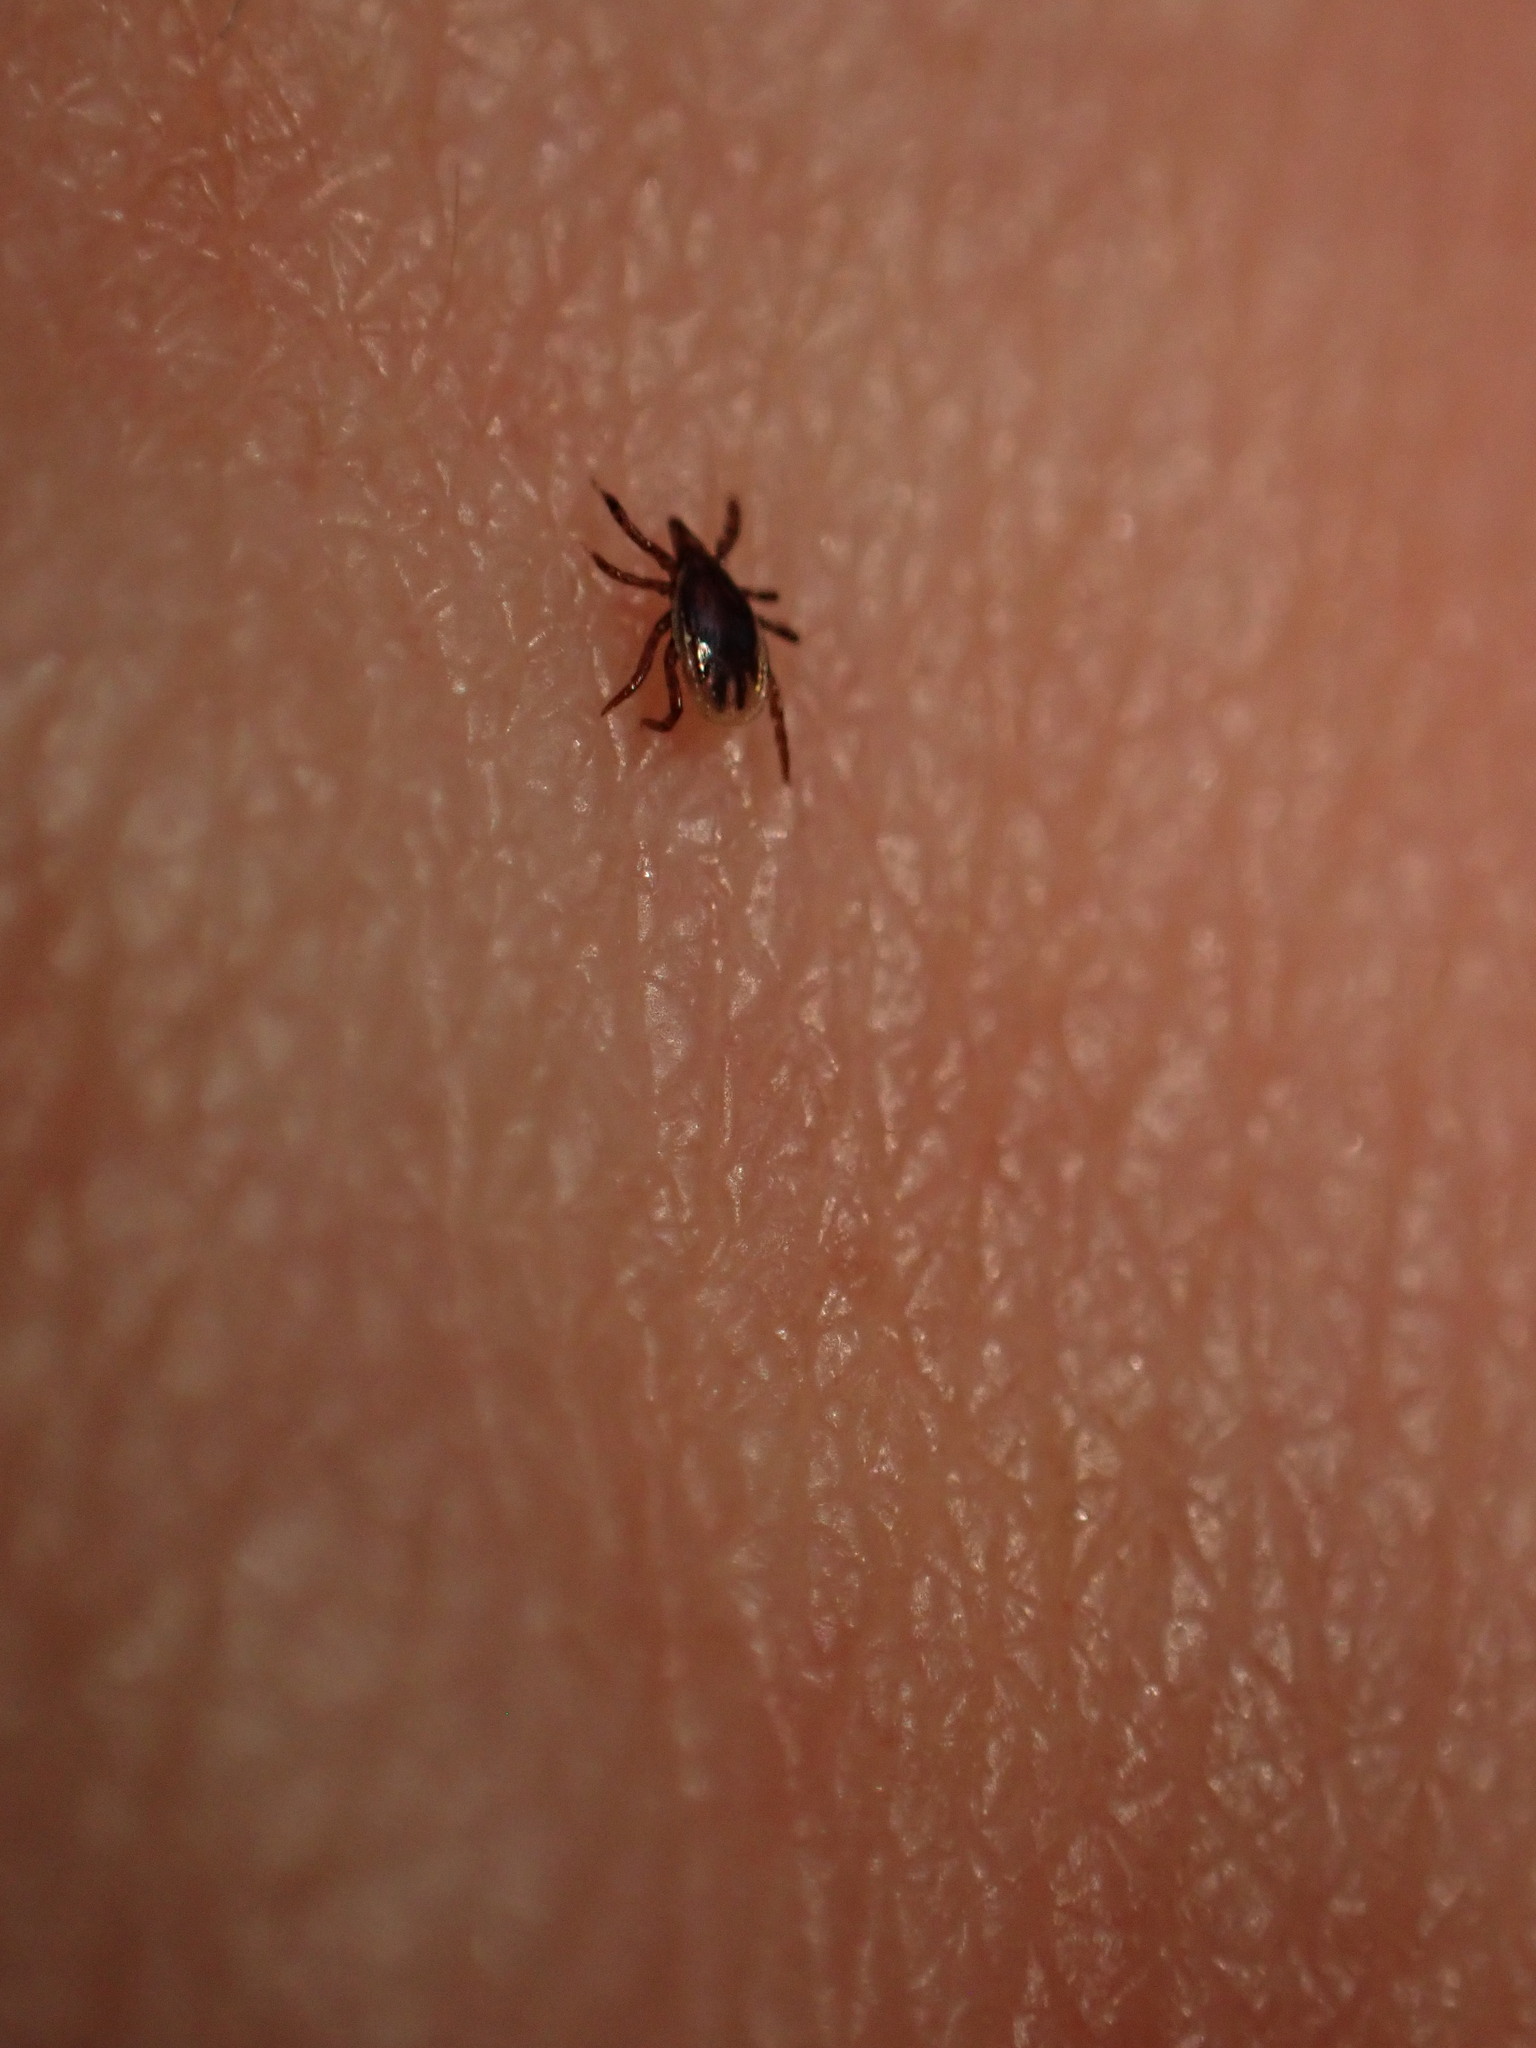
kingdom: Animalia
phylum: Arthropoda
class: Arachnida
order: Ixodida
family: Ixodidae
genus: Ixodes
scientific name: Ixodes scapularis
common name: Black legged tick
